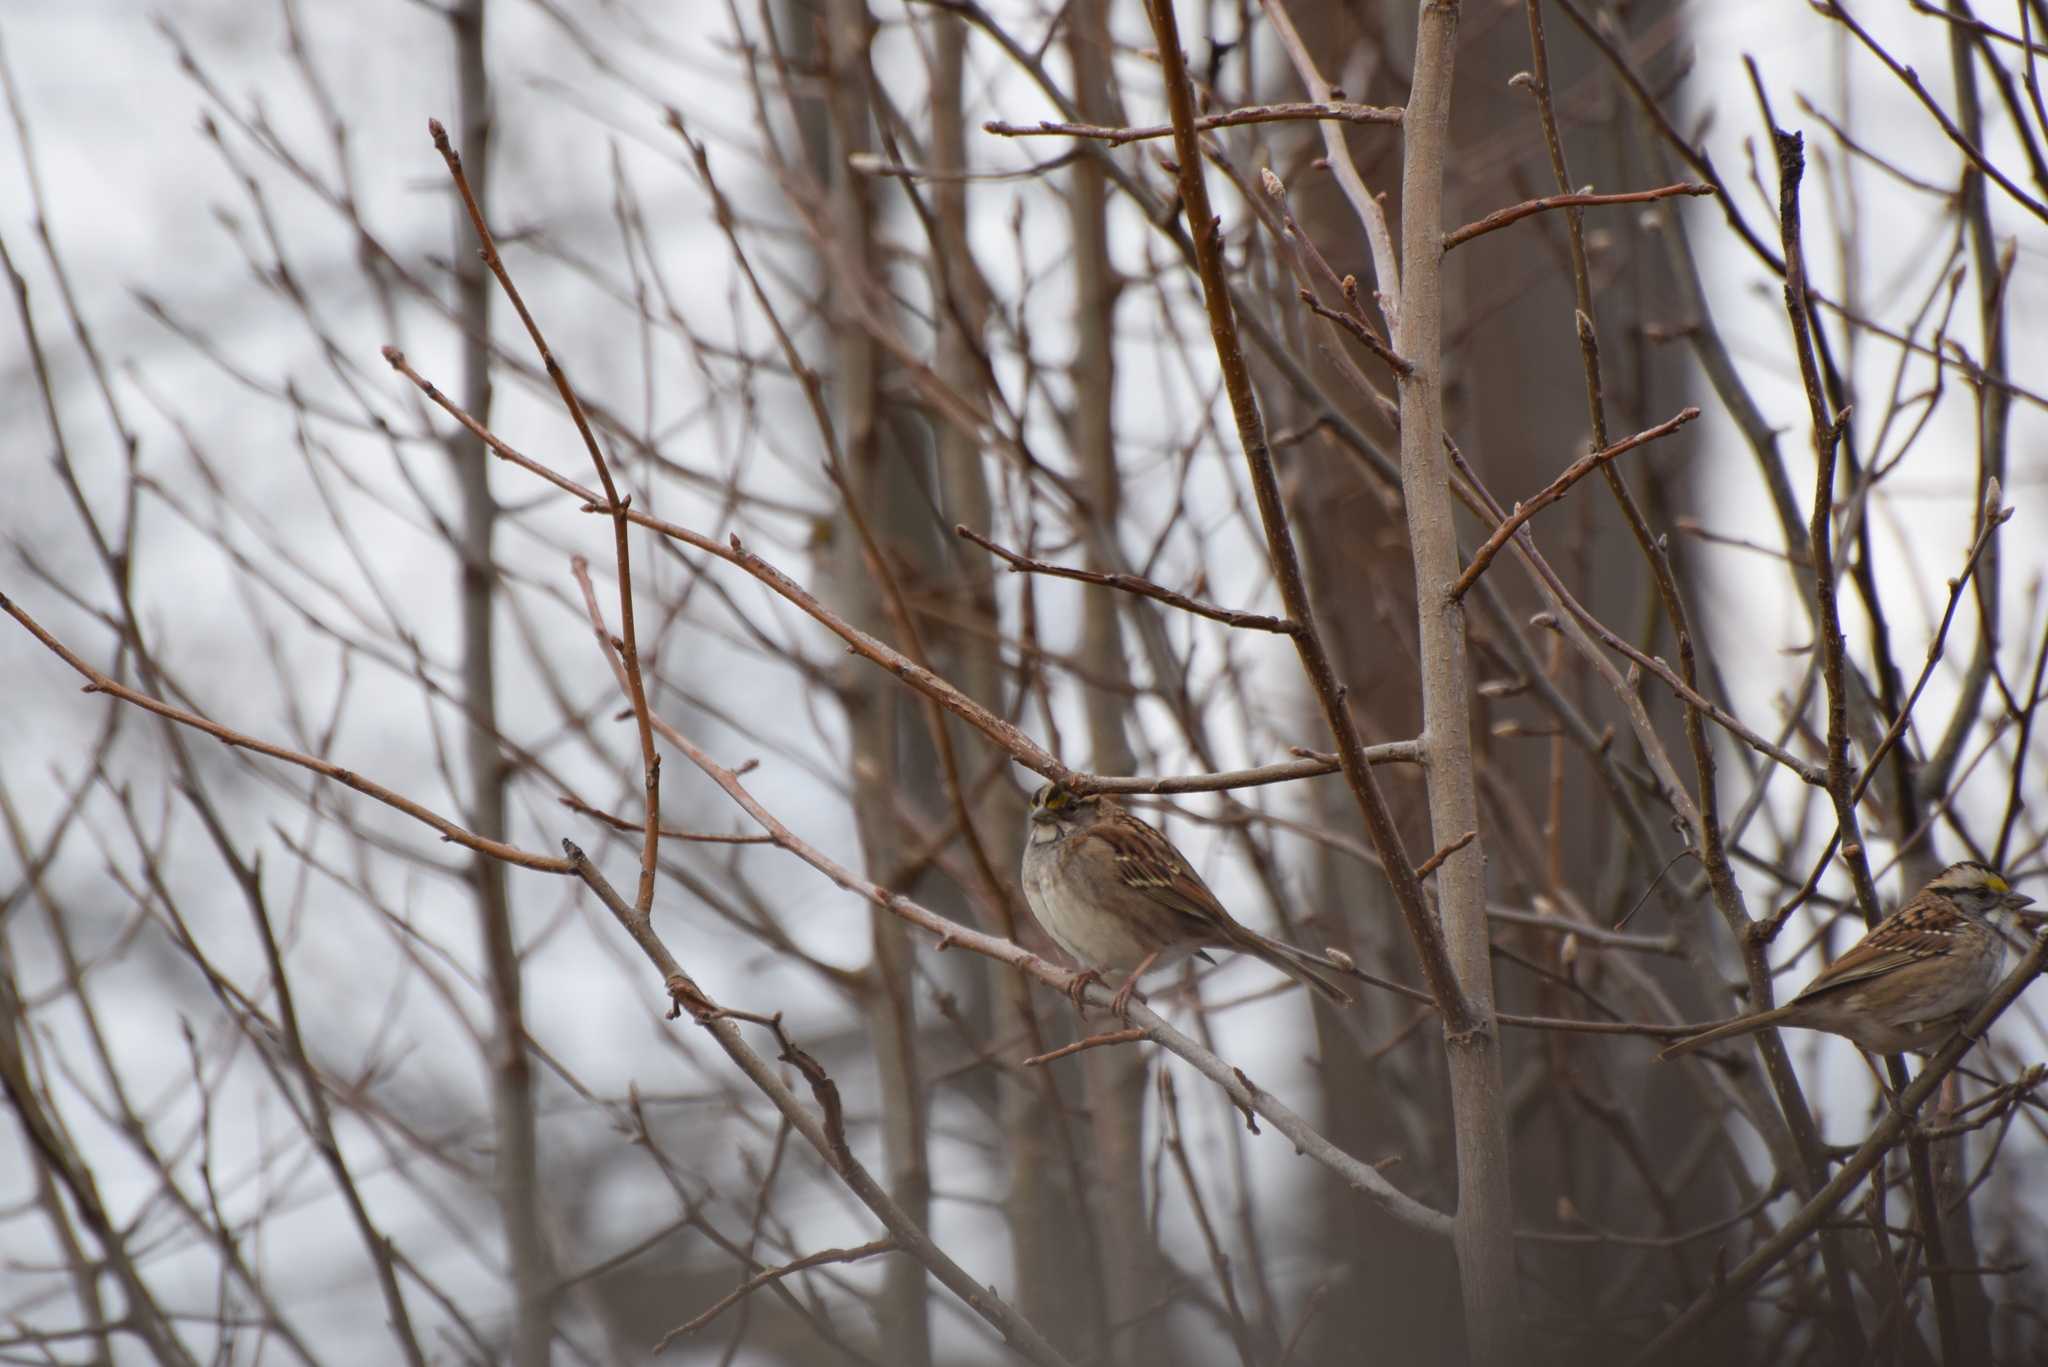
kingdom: Animalia
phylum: Chordata
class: Aves
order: Passeriformes
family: Passerellidae
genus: Zonotrichia
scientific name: Zonotrichia albicollis
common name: White-throated sparrow
